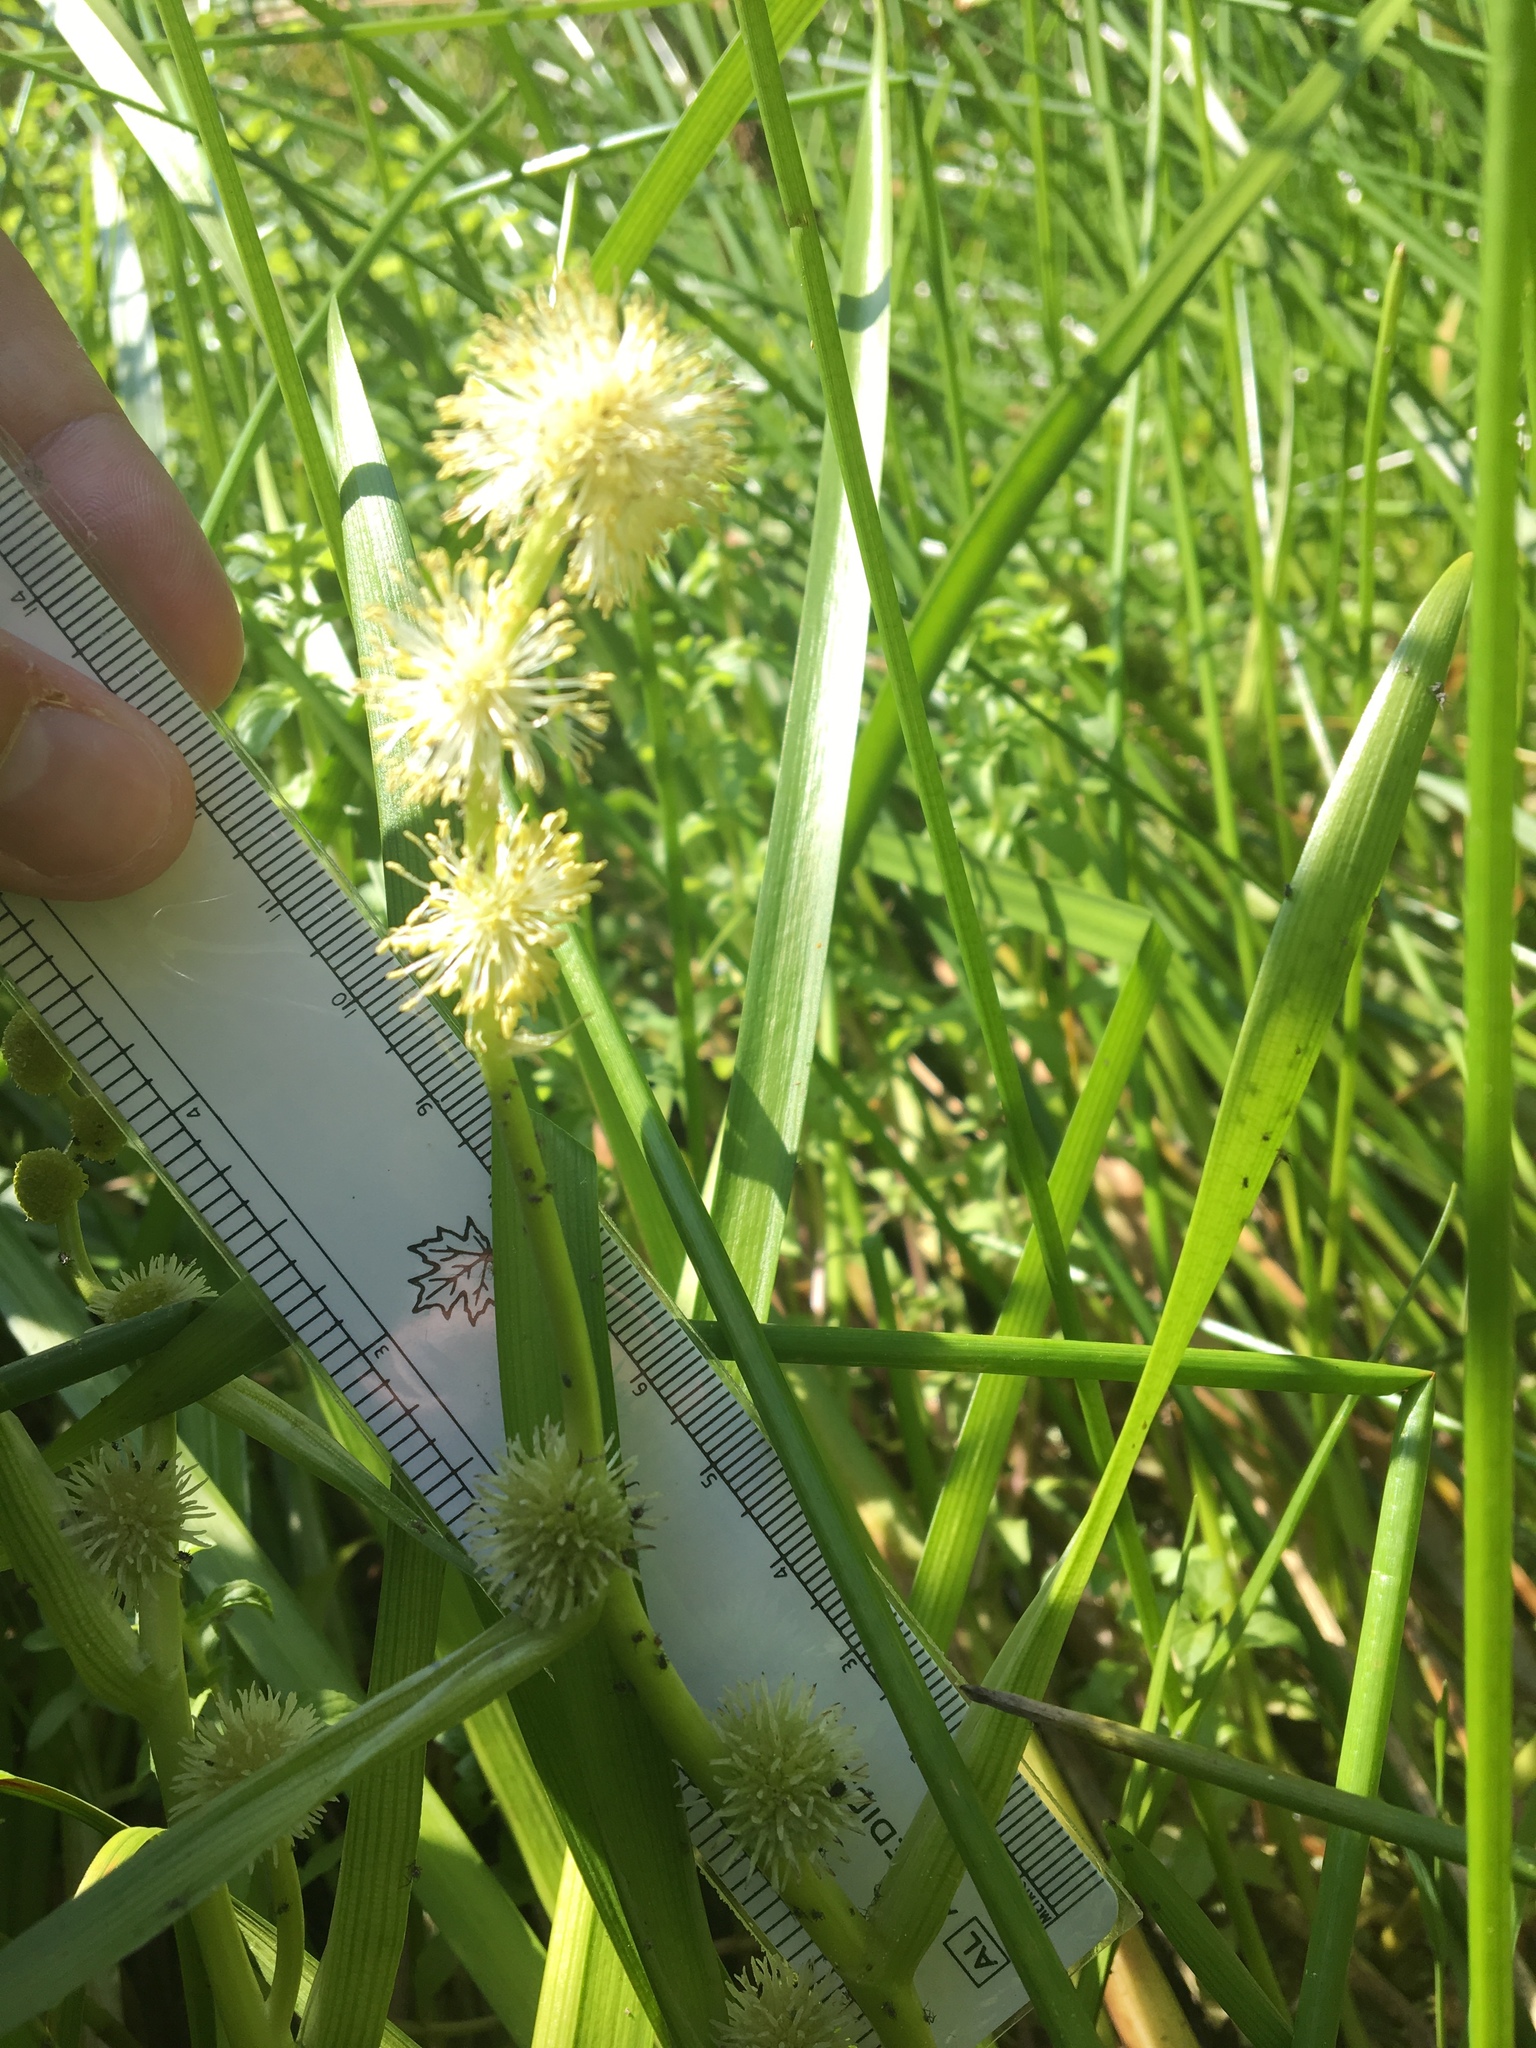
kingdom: Plantae
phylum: Tracheophyta
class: Liliopsida
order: Poales
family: Typhaceae
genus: Sparganium
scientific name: Sparganium emersum
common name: Unbranched bur-reed
